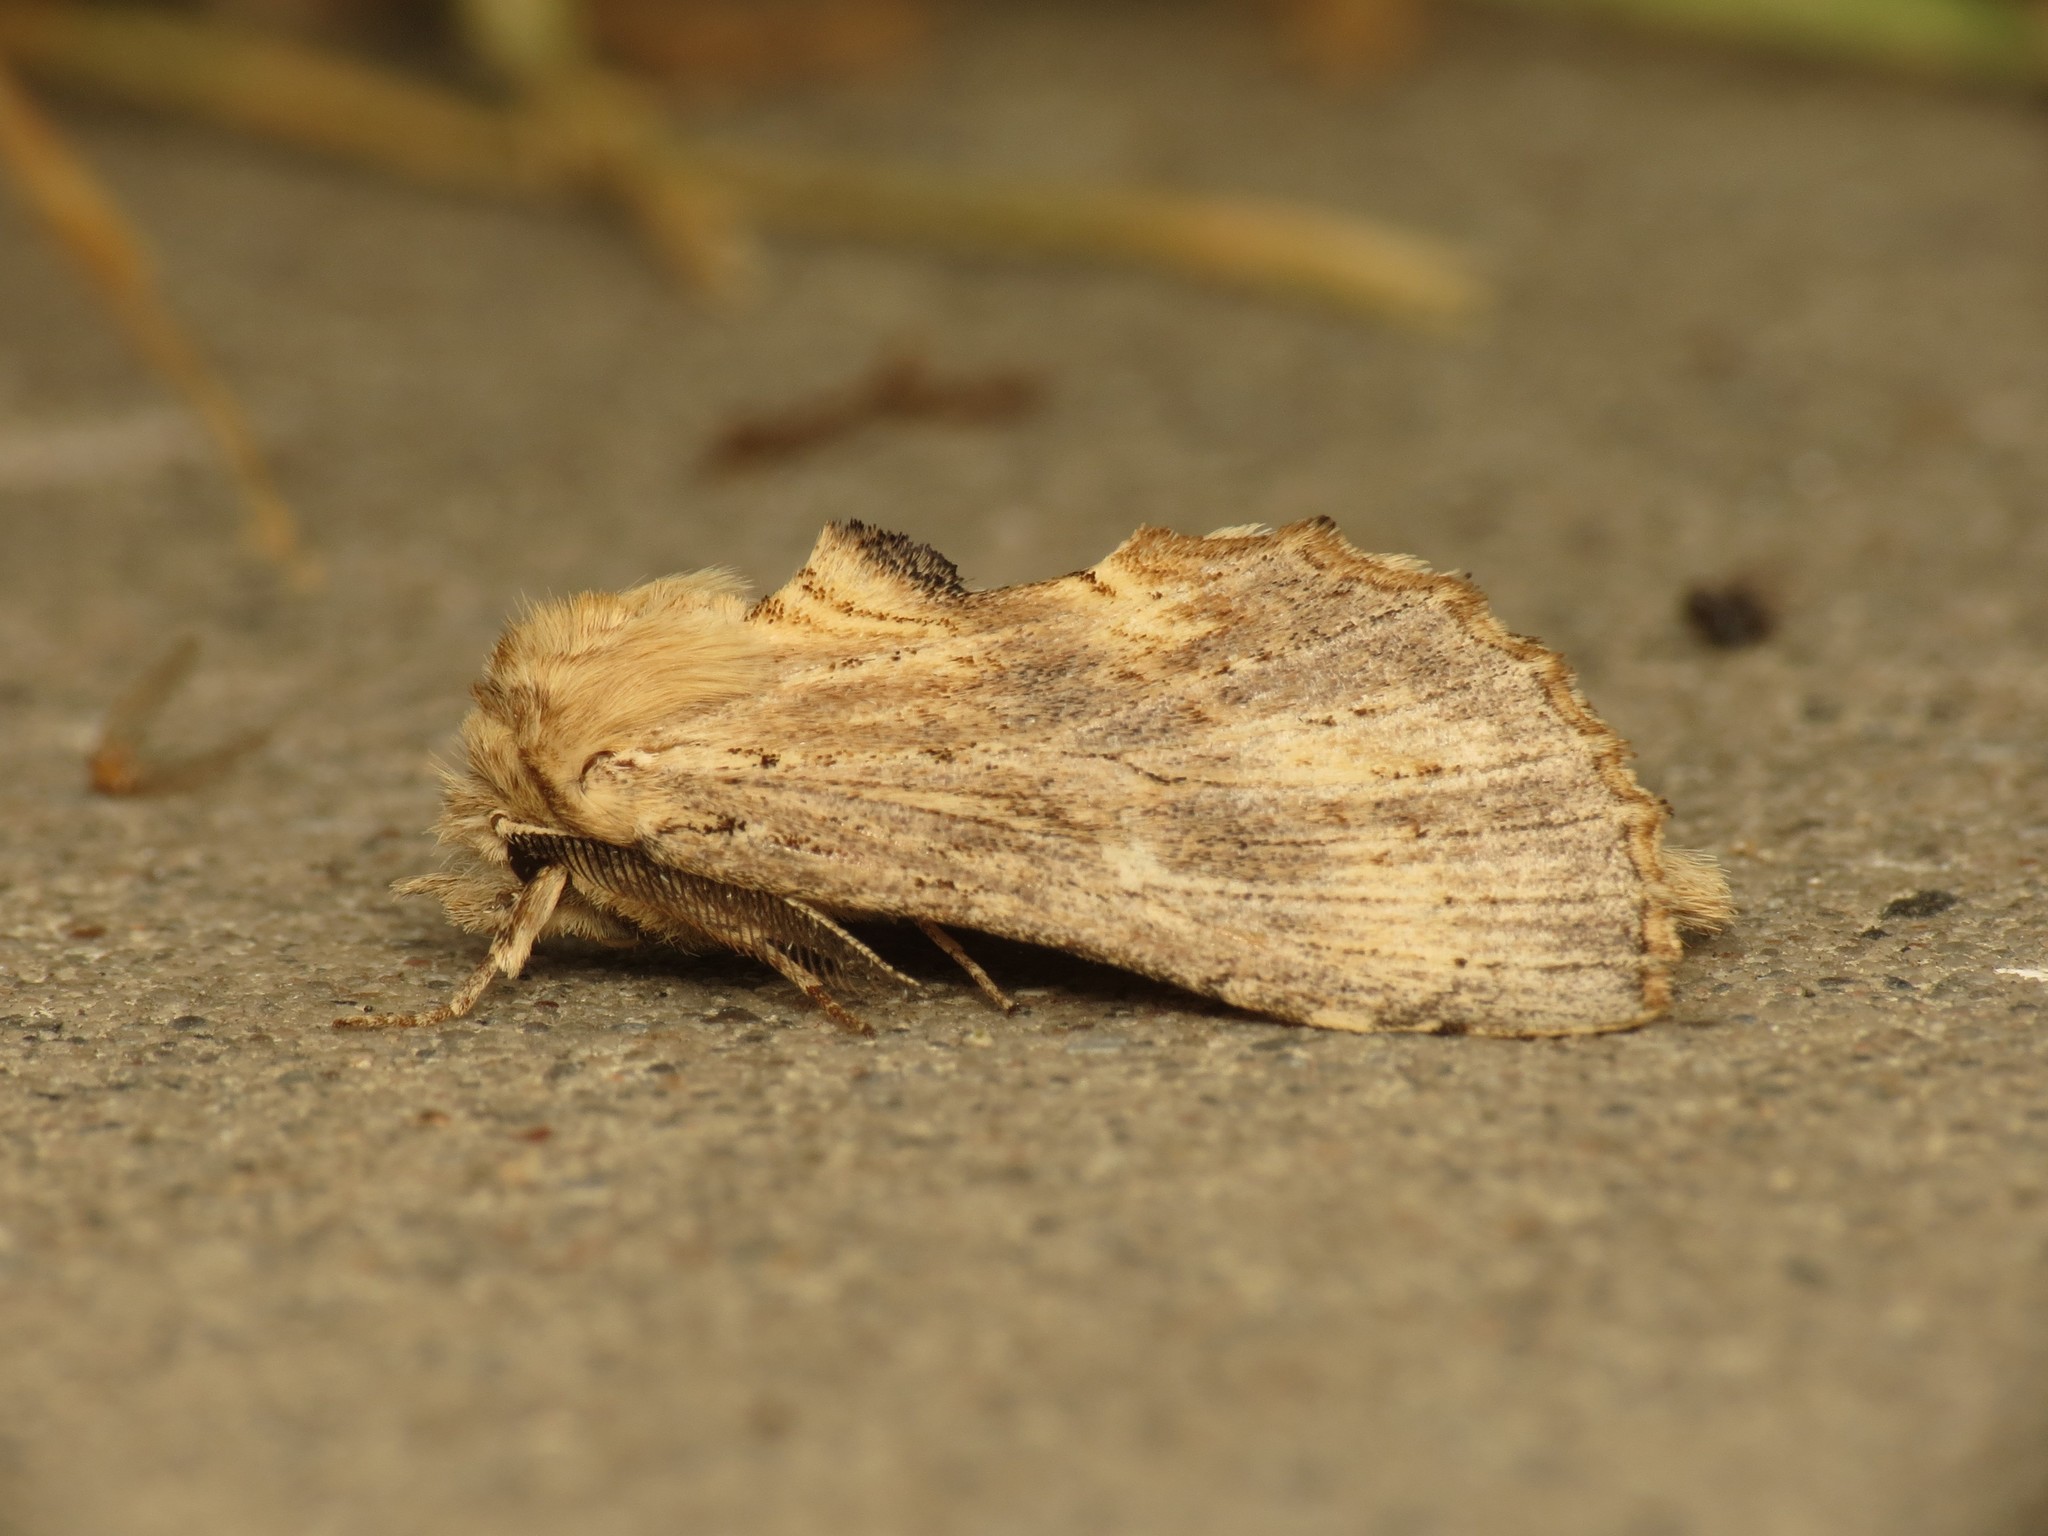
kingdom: Animalia
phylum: Arthropoda
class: Insecta
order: Lepidoptera
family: Notodontidae
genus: Pterostoma
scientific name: Pterostoma palpina
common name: Pale prominent
